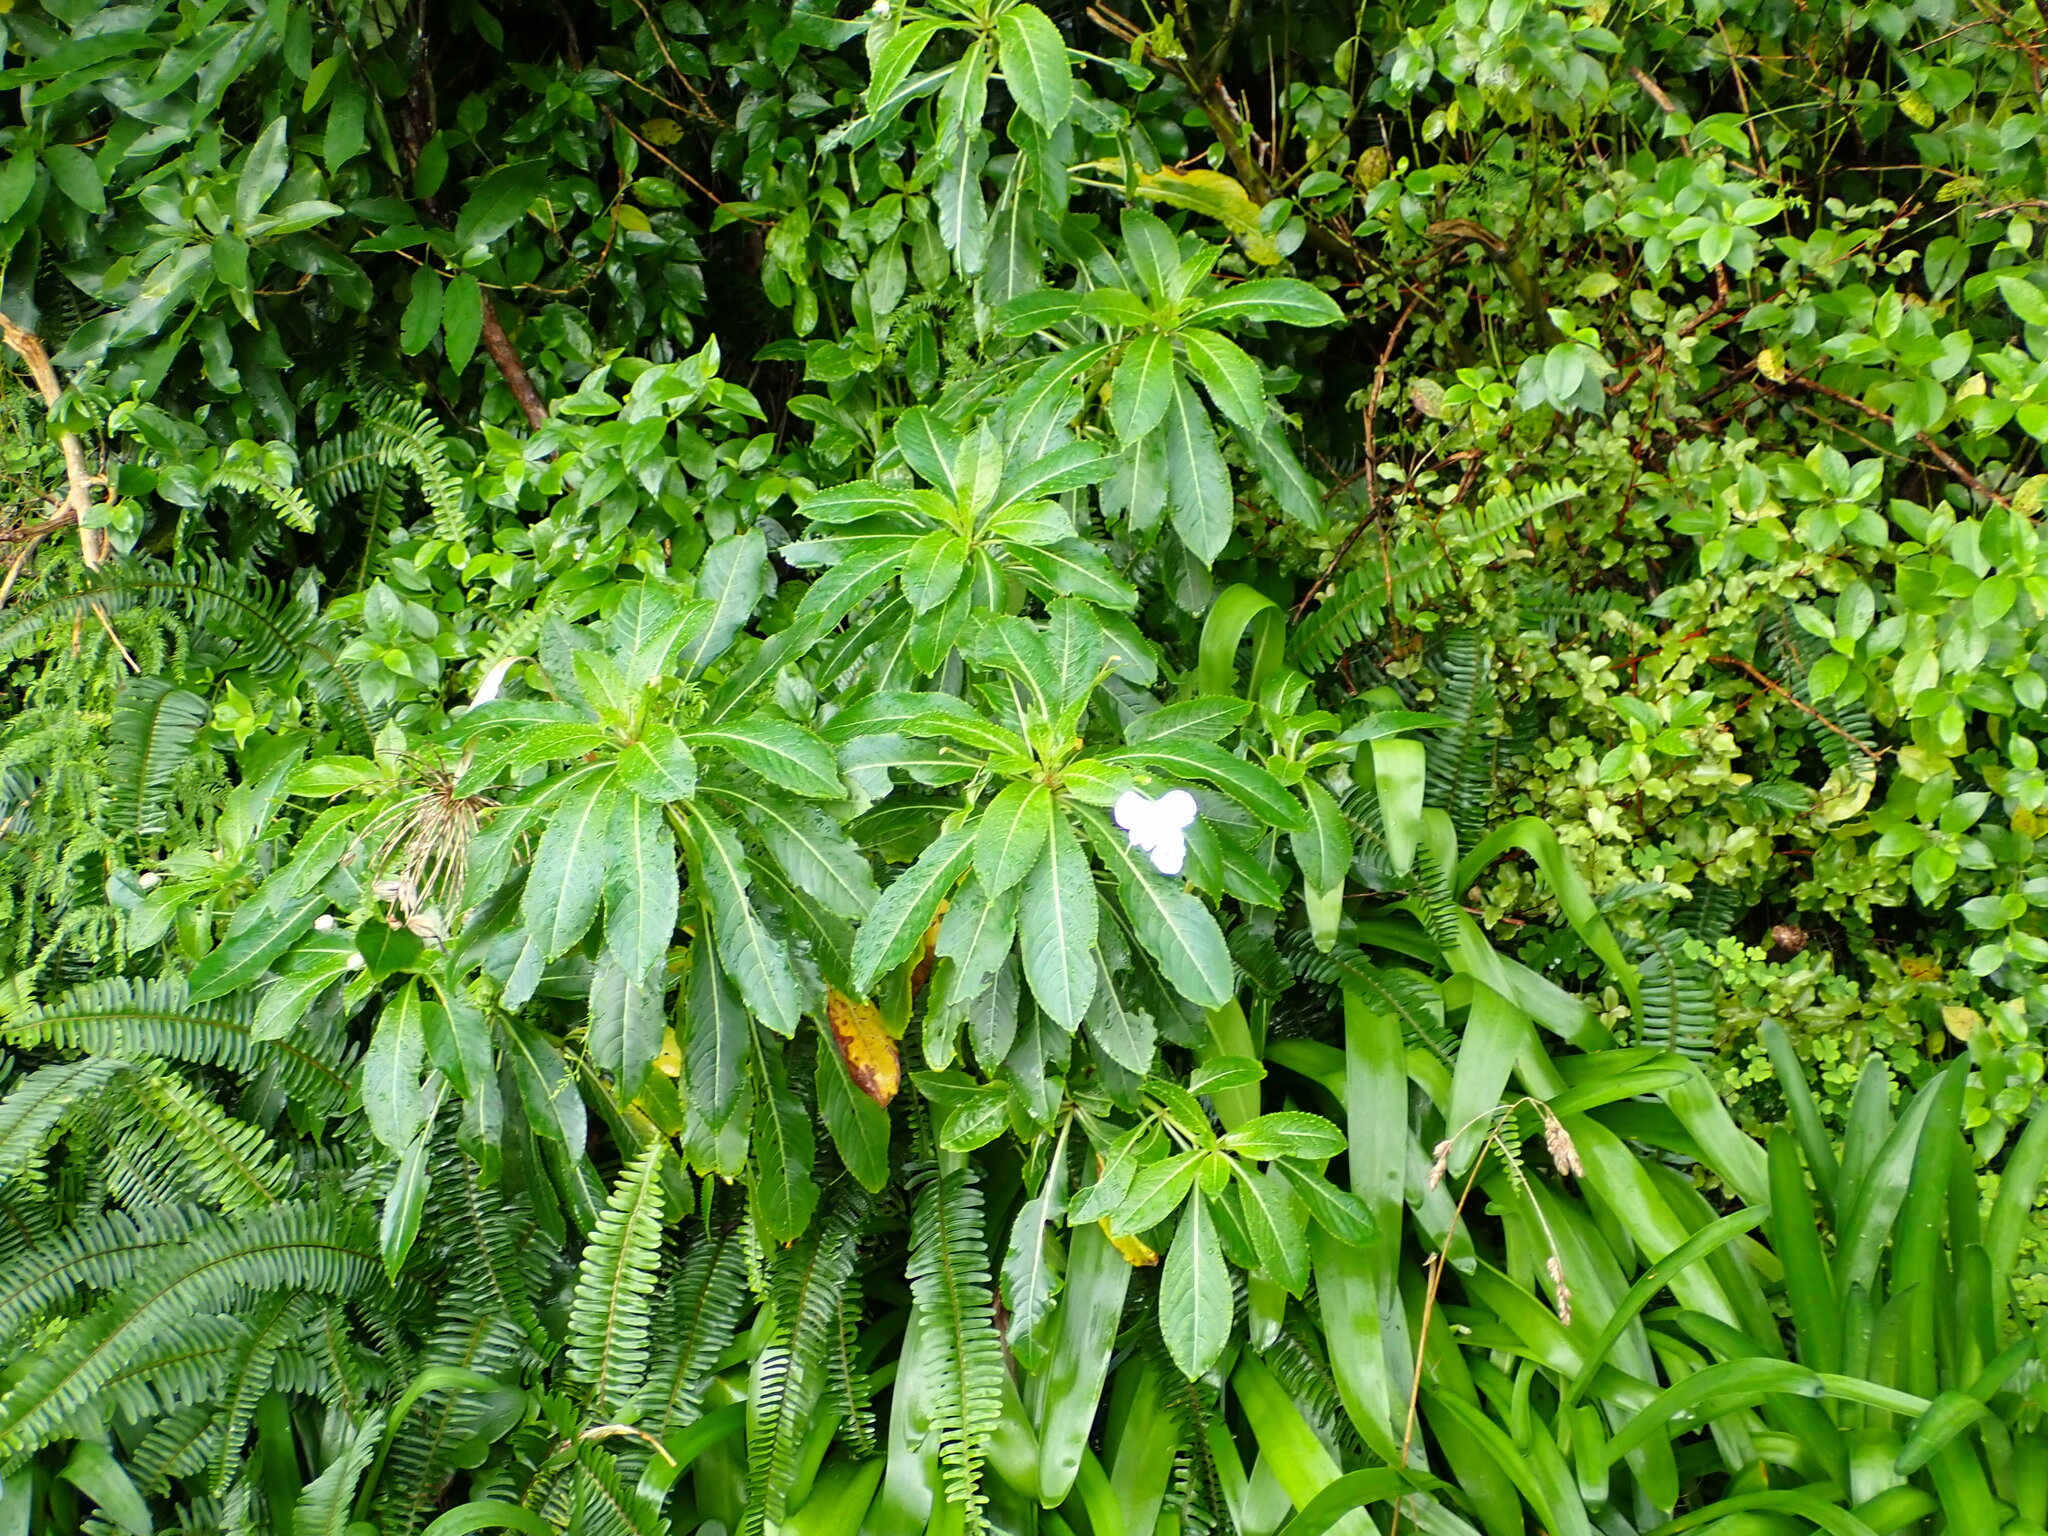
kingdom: Plantae
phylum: Tracheophyta
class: Magnoliopsida
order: Ericales
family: Balsaminaceae
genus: Impatiens
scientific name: Impatiens sodenii
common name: Oliver's touch-me-not
